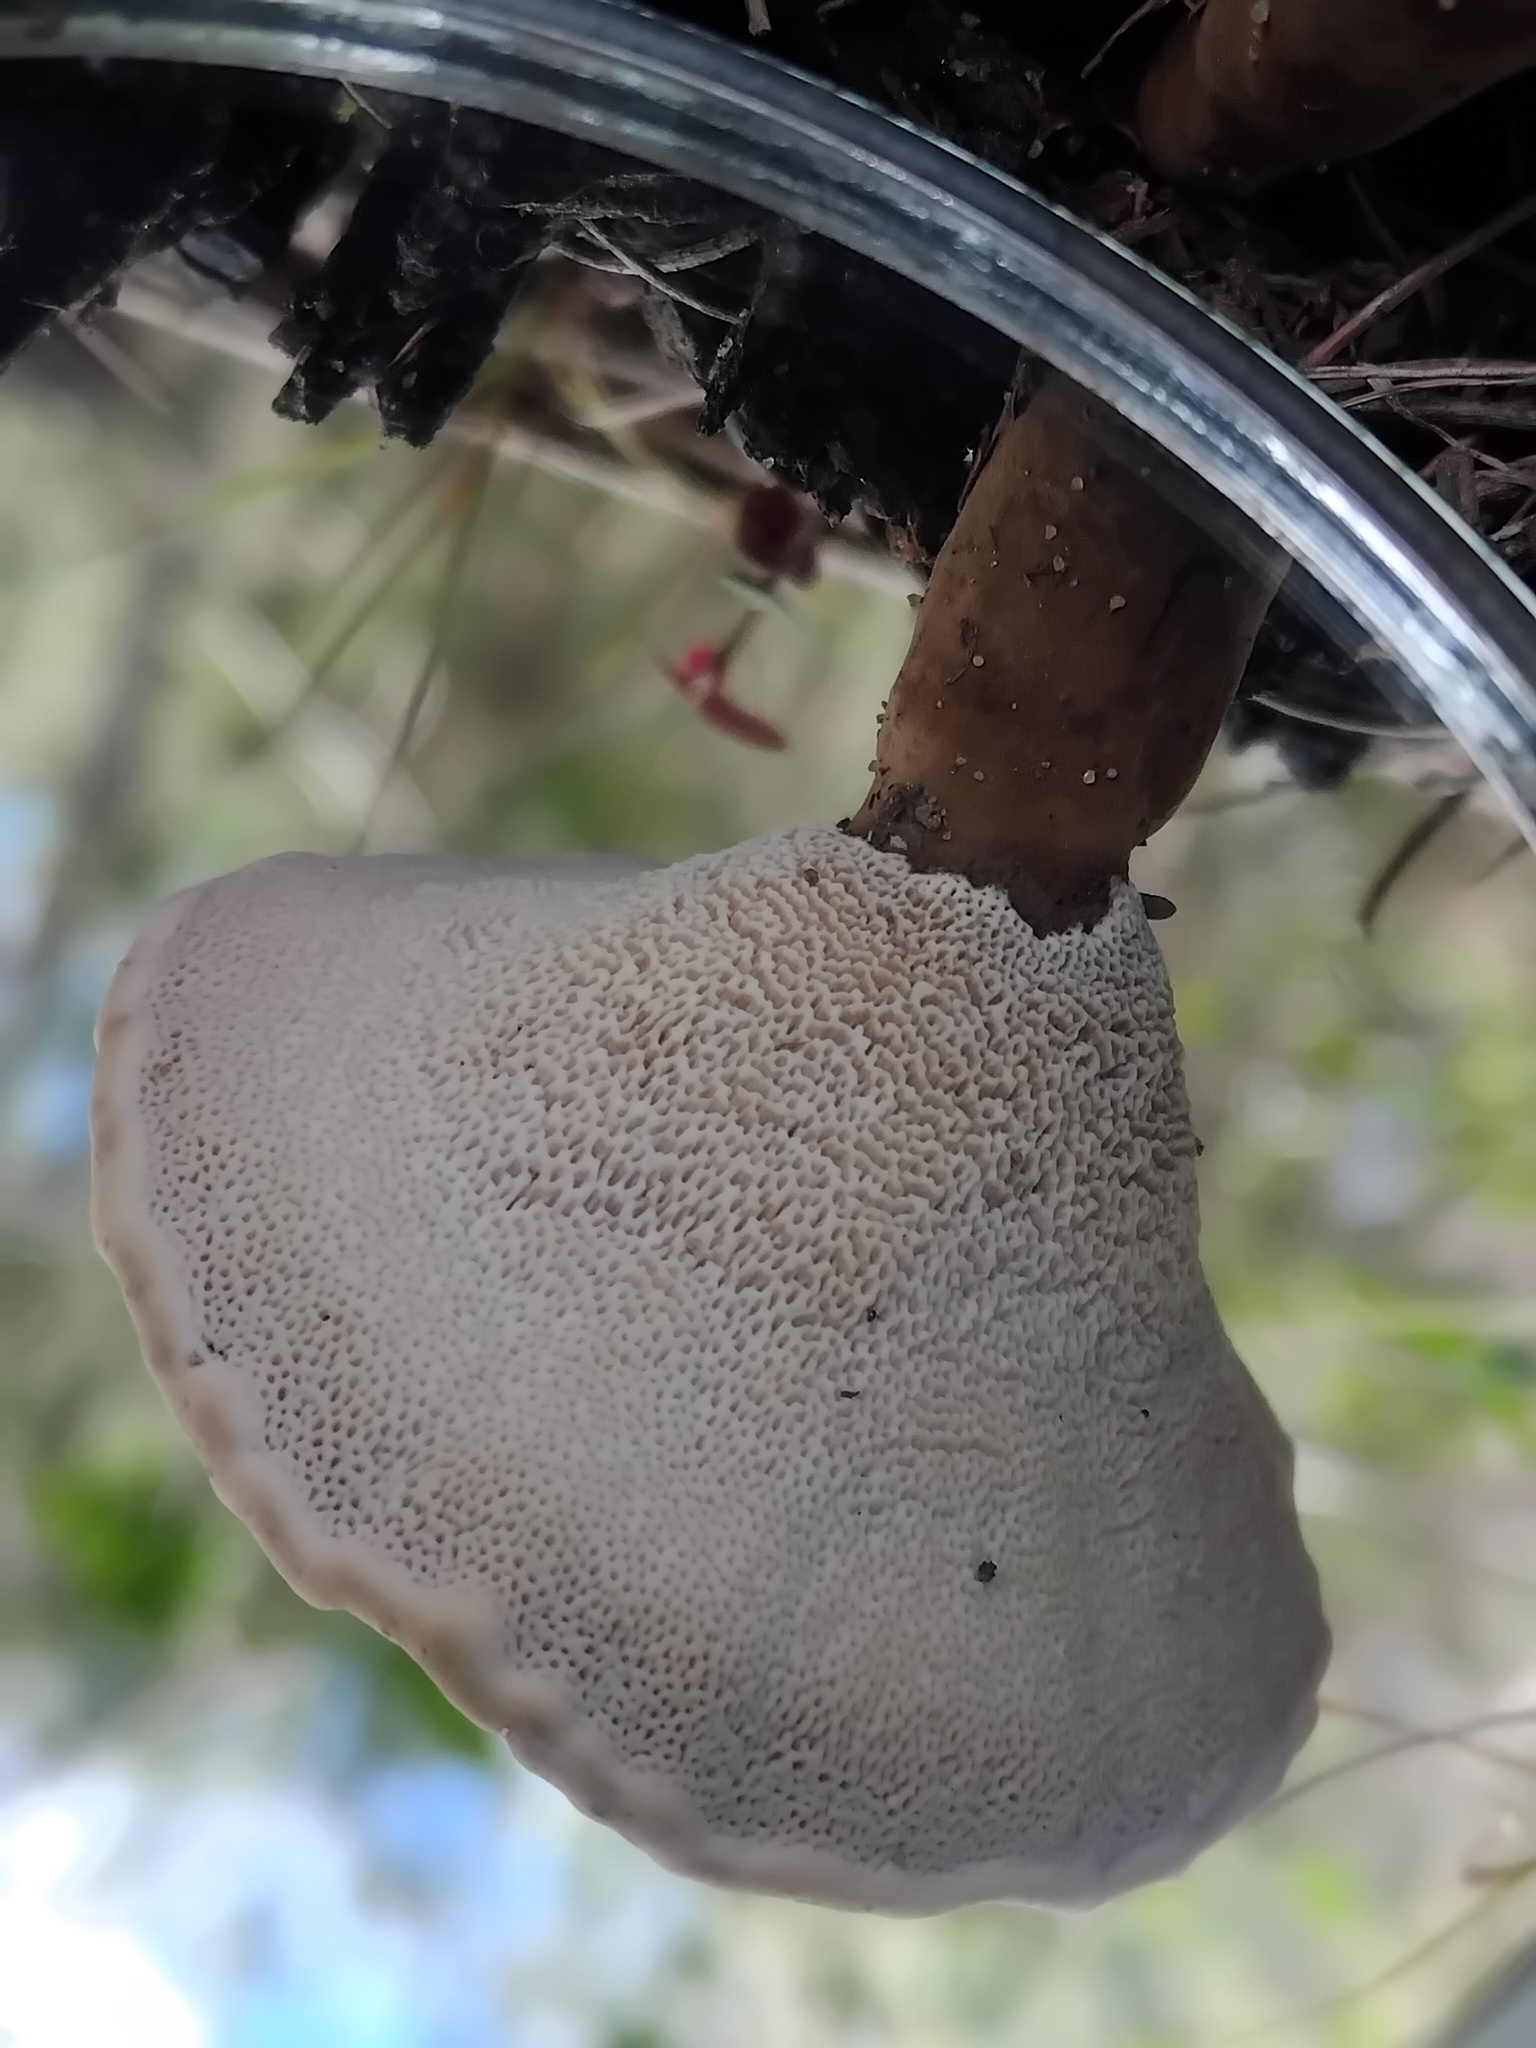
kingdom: Fungi
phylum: Basidiomycota
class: Agaricomycetes
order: Polyporales
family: Ganodermataceae
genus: Sanguinoderma
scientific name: Sanguinoderma rude
